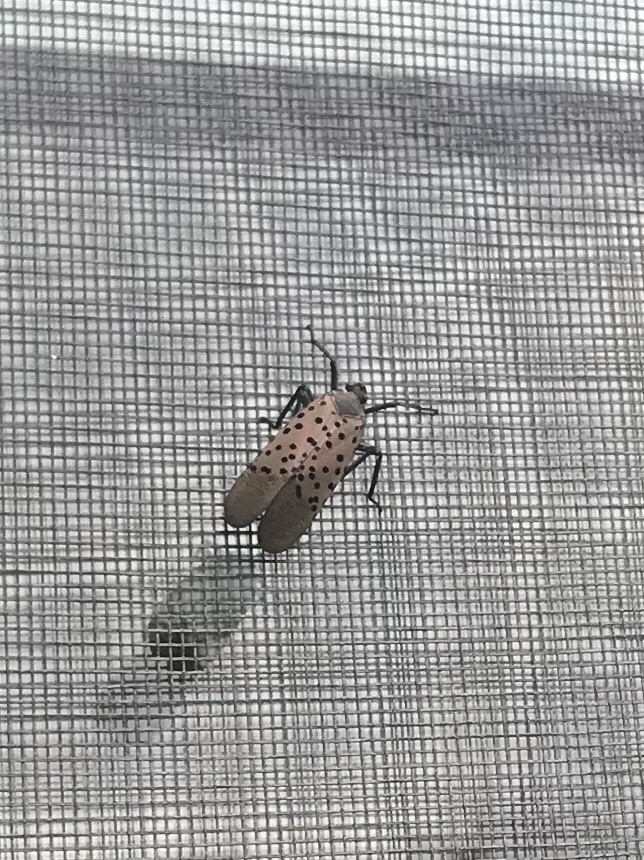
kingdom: Animalia
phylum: Arthropoda
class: Insecta
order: Hemiptera
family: Fulgoridae
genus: Lycorma
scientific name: Lycorma delicatula
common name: Spotted lanternfly
